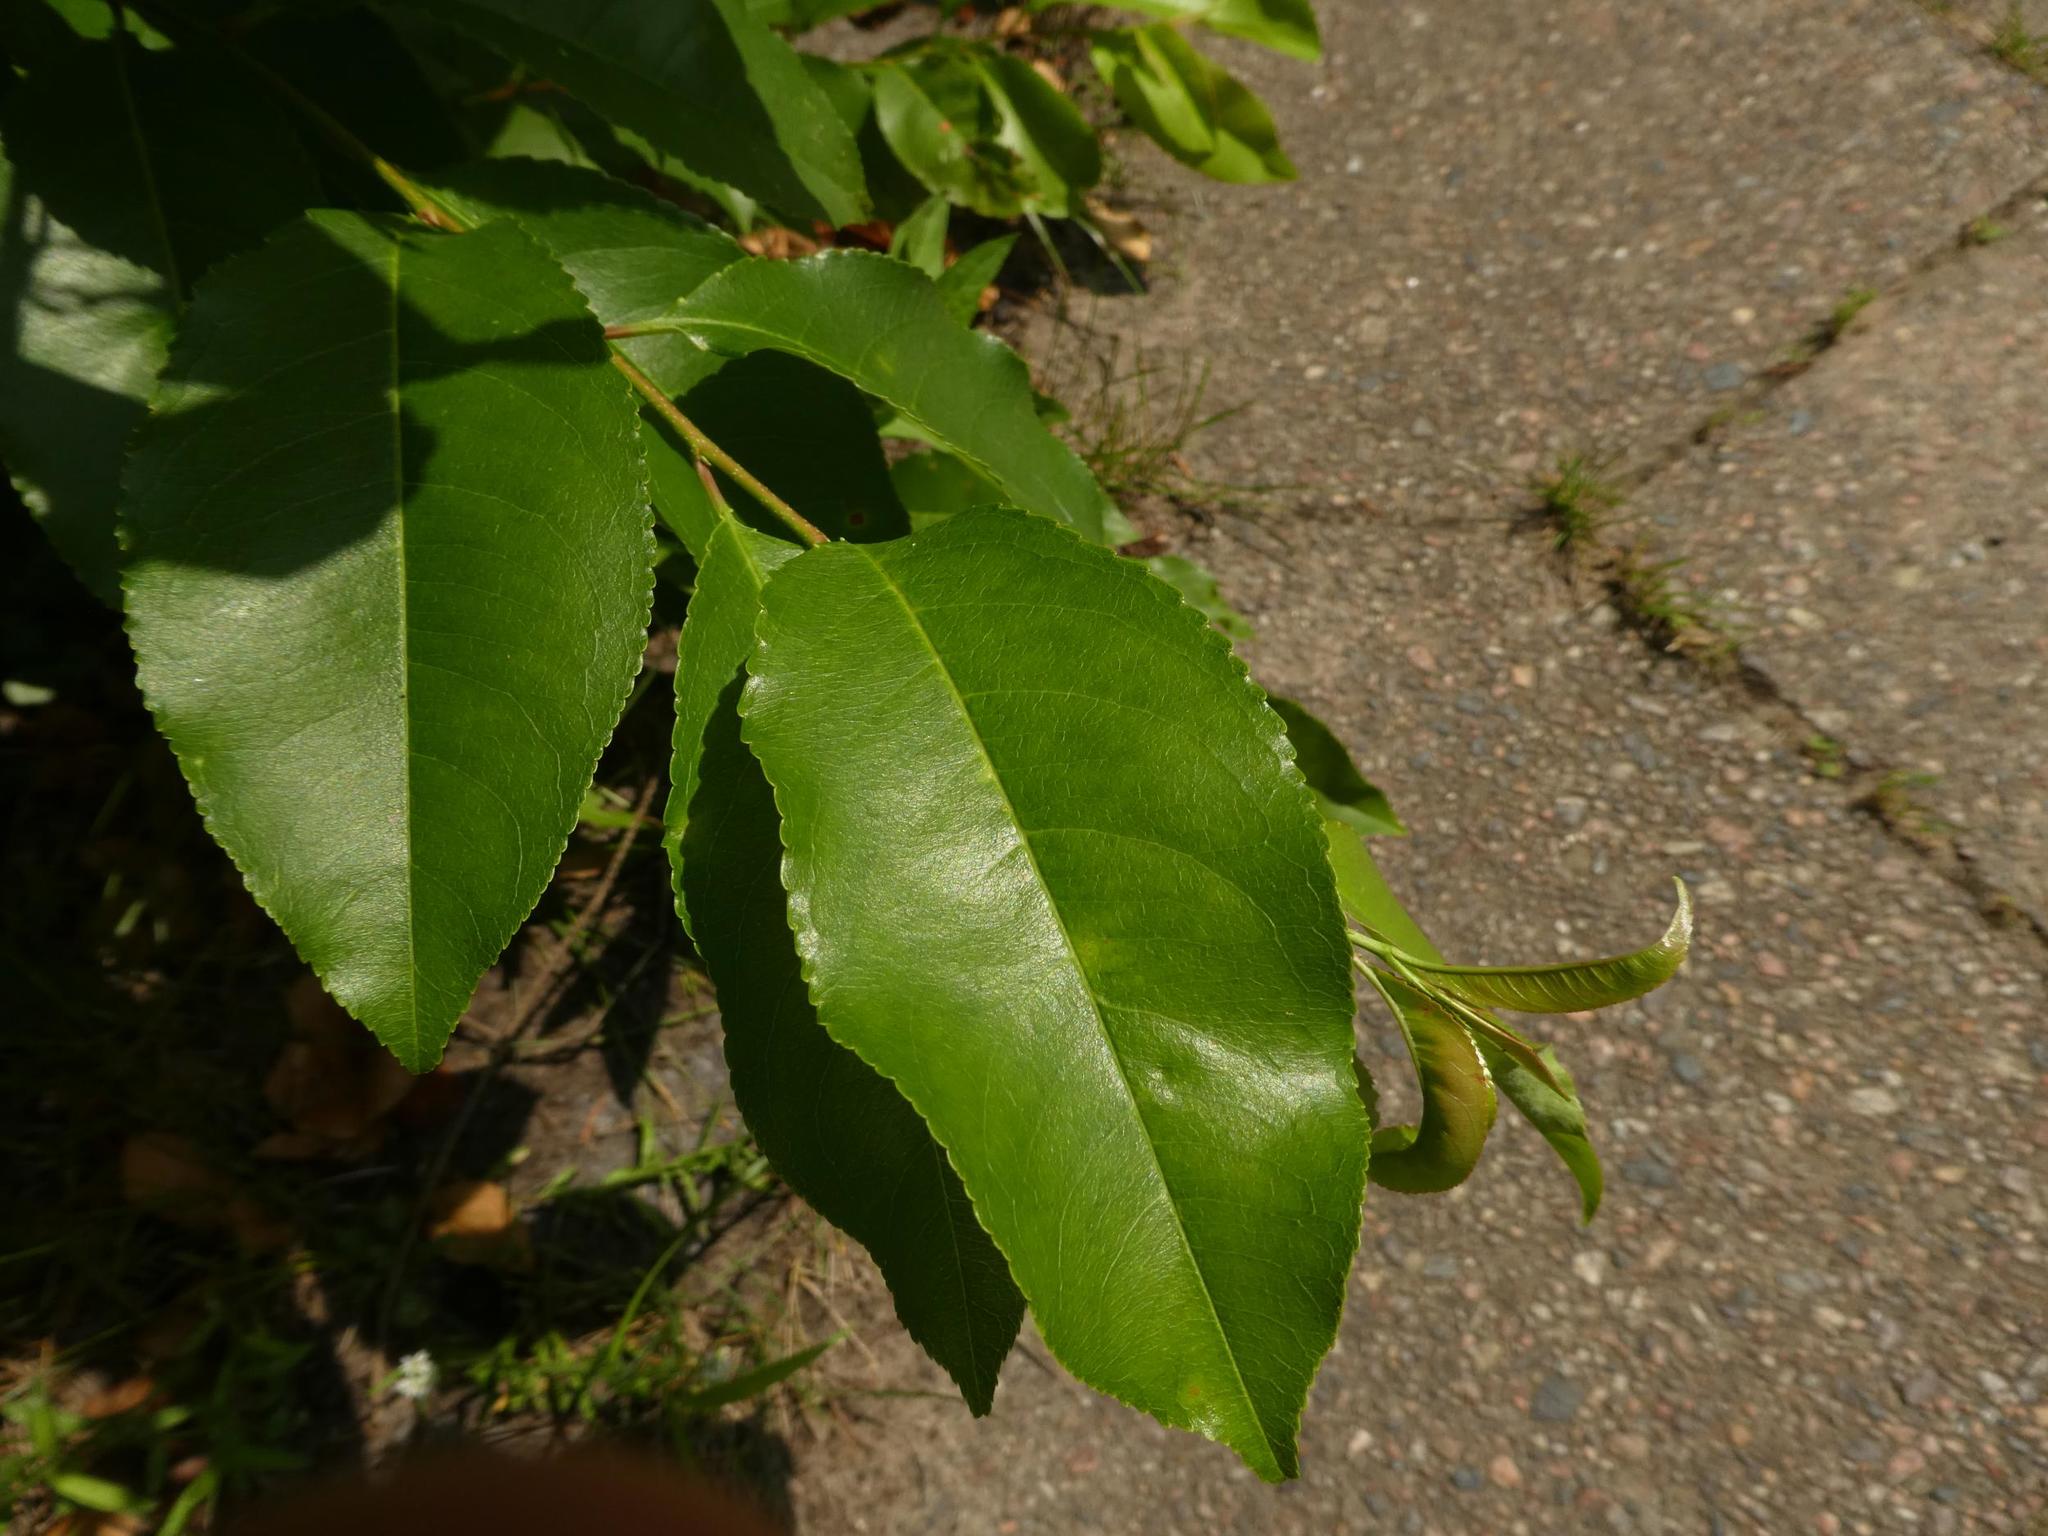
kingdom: Plantae
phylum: Tracheophyta
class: Magnoliopsida
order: Rosales
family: Rosaceae
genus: Prunus
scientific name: Prunus serotina
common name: Black cherry
